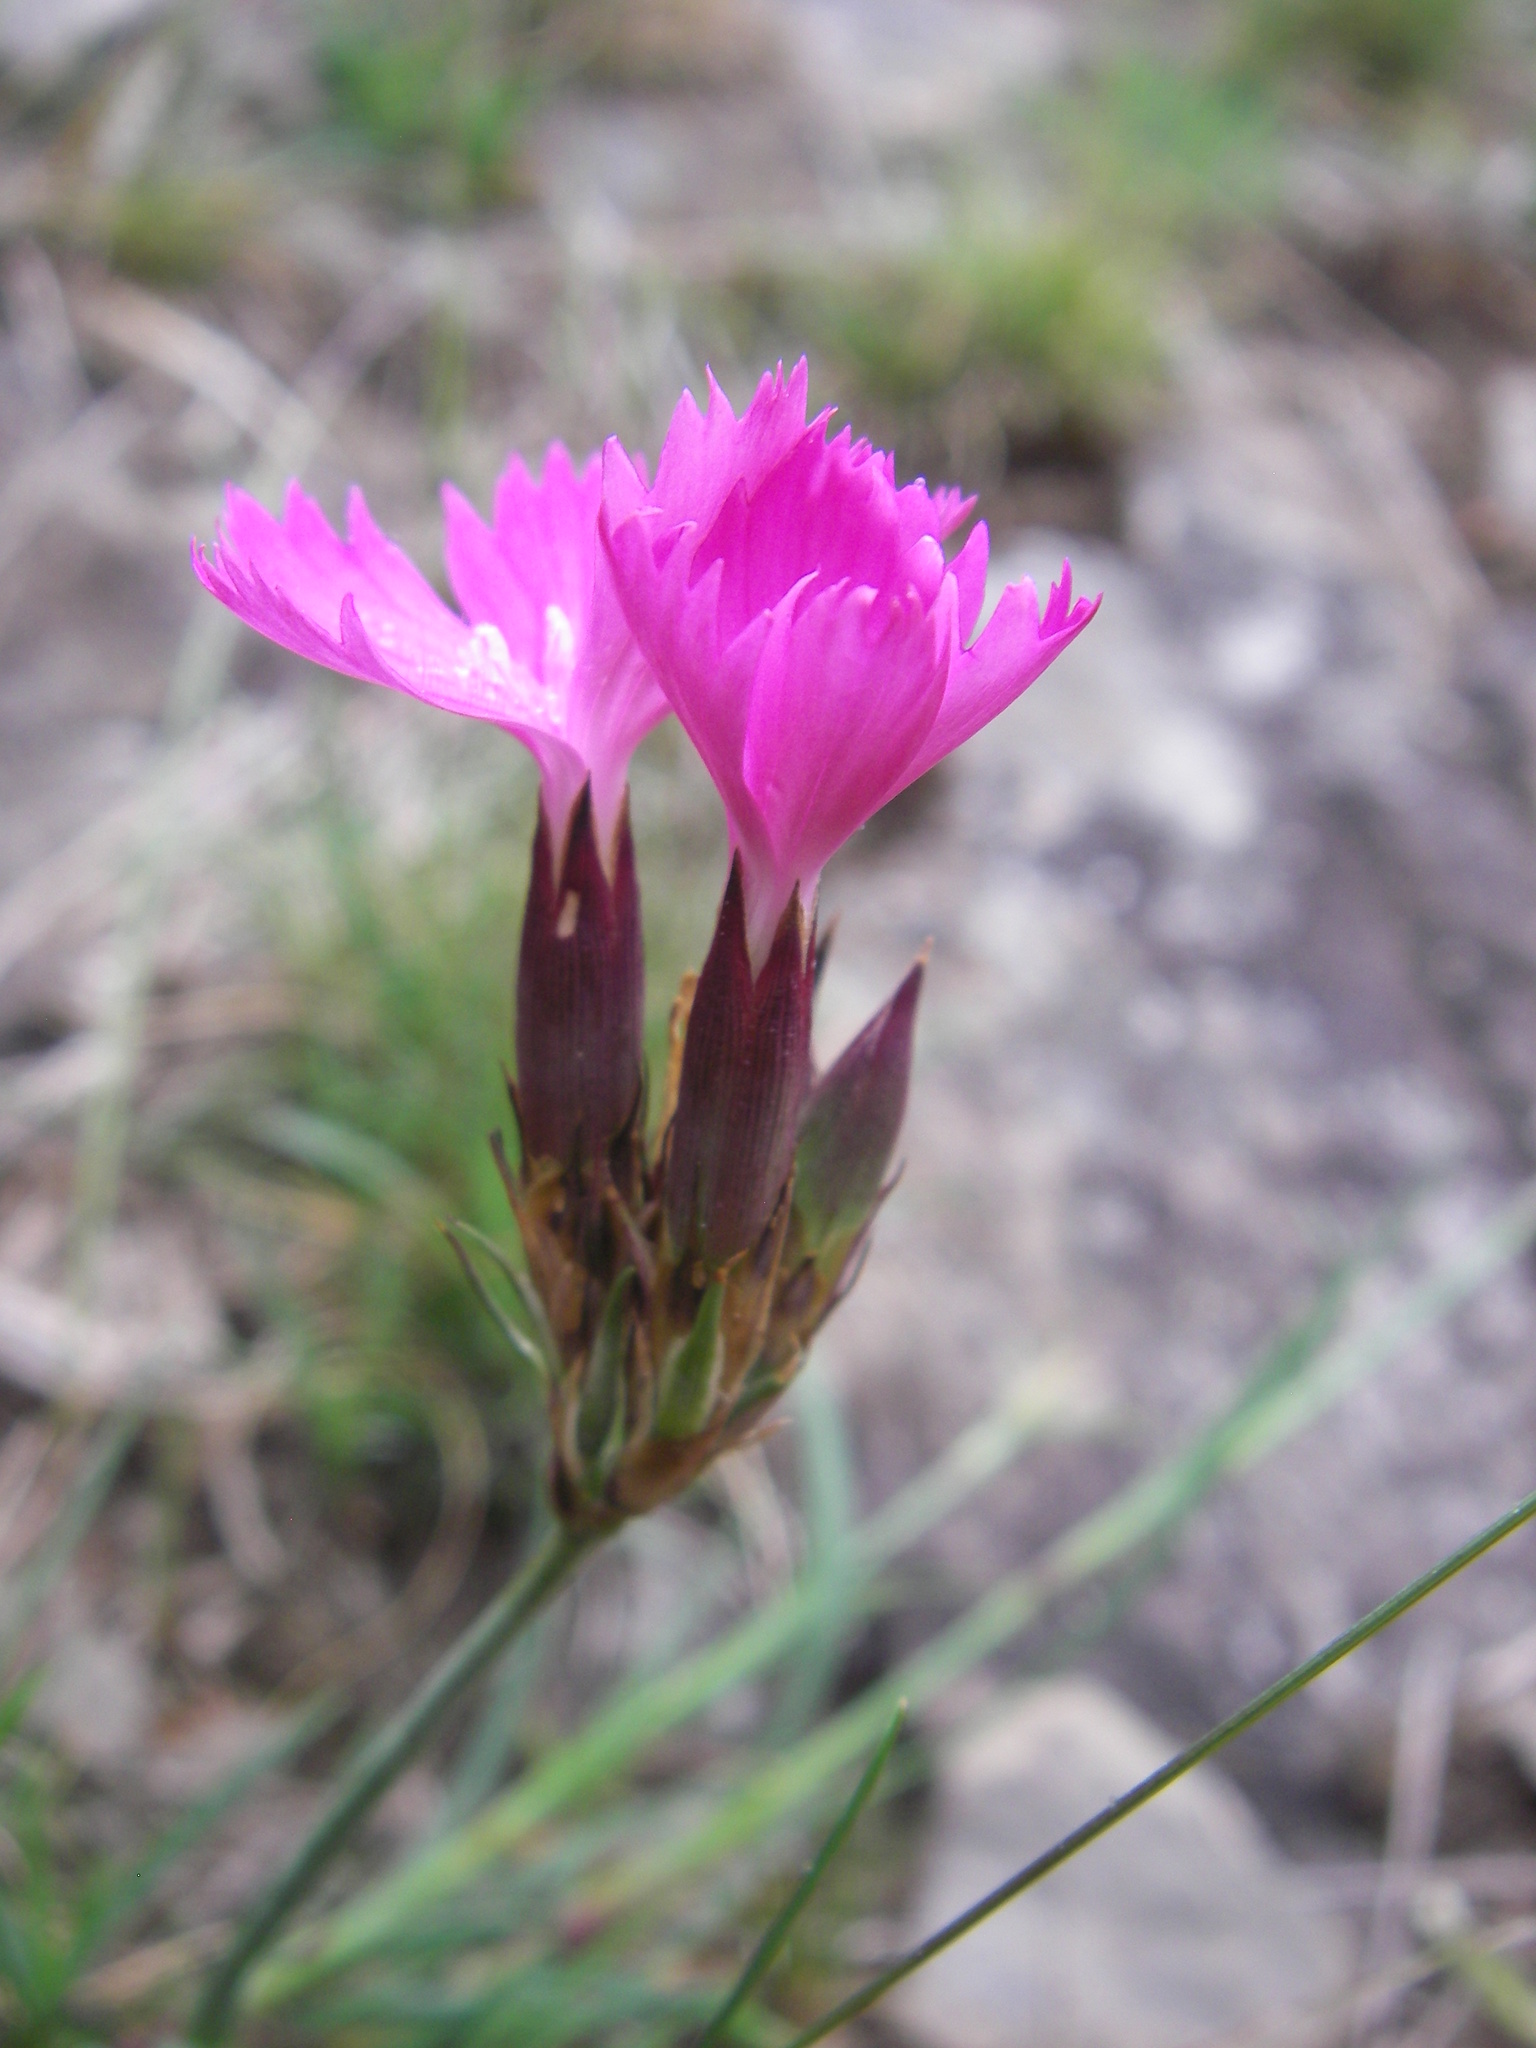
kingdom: Plantae
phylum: Tracheophyta
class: Magnoliopsida
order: Caryophyllales
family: Caryophyllaceae
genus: Dianthus
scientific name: Dianthus carthusianorum
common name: Carthusian pink
